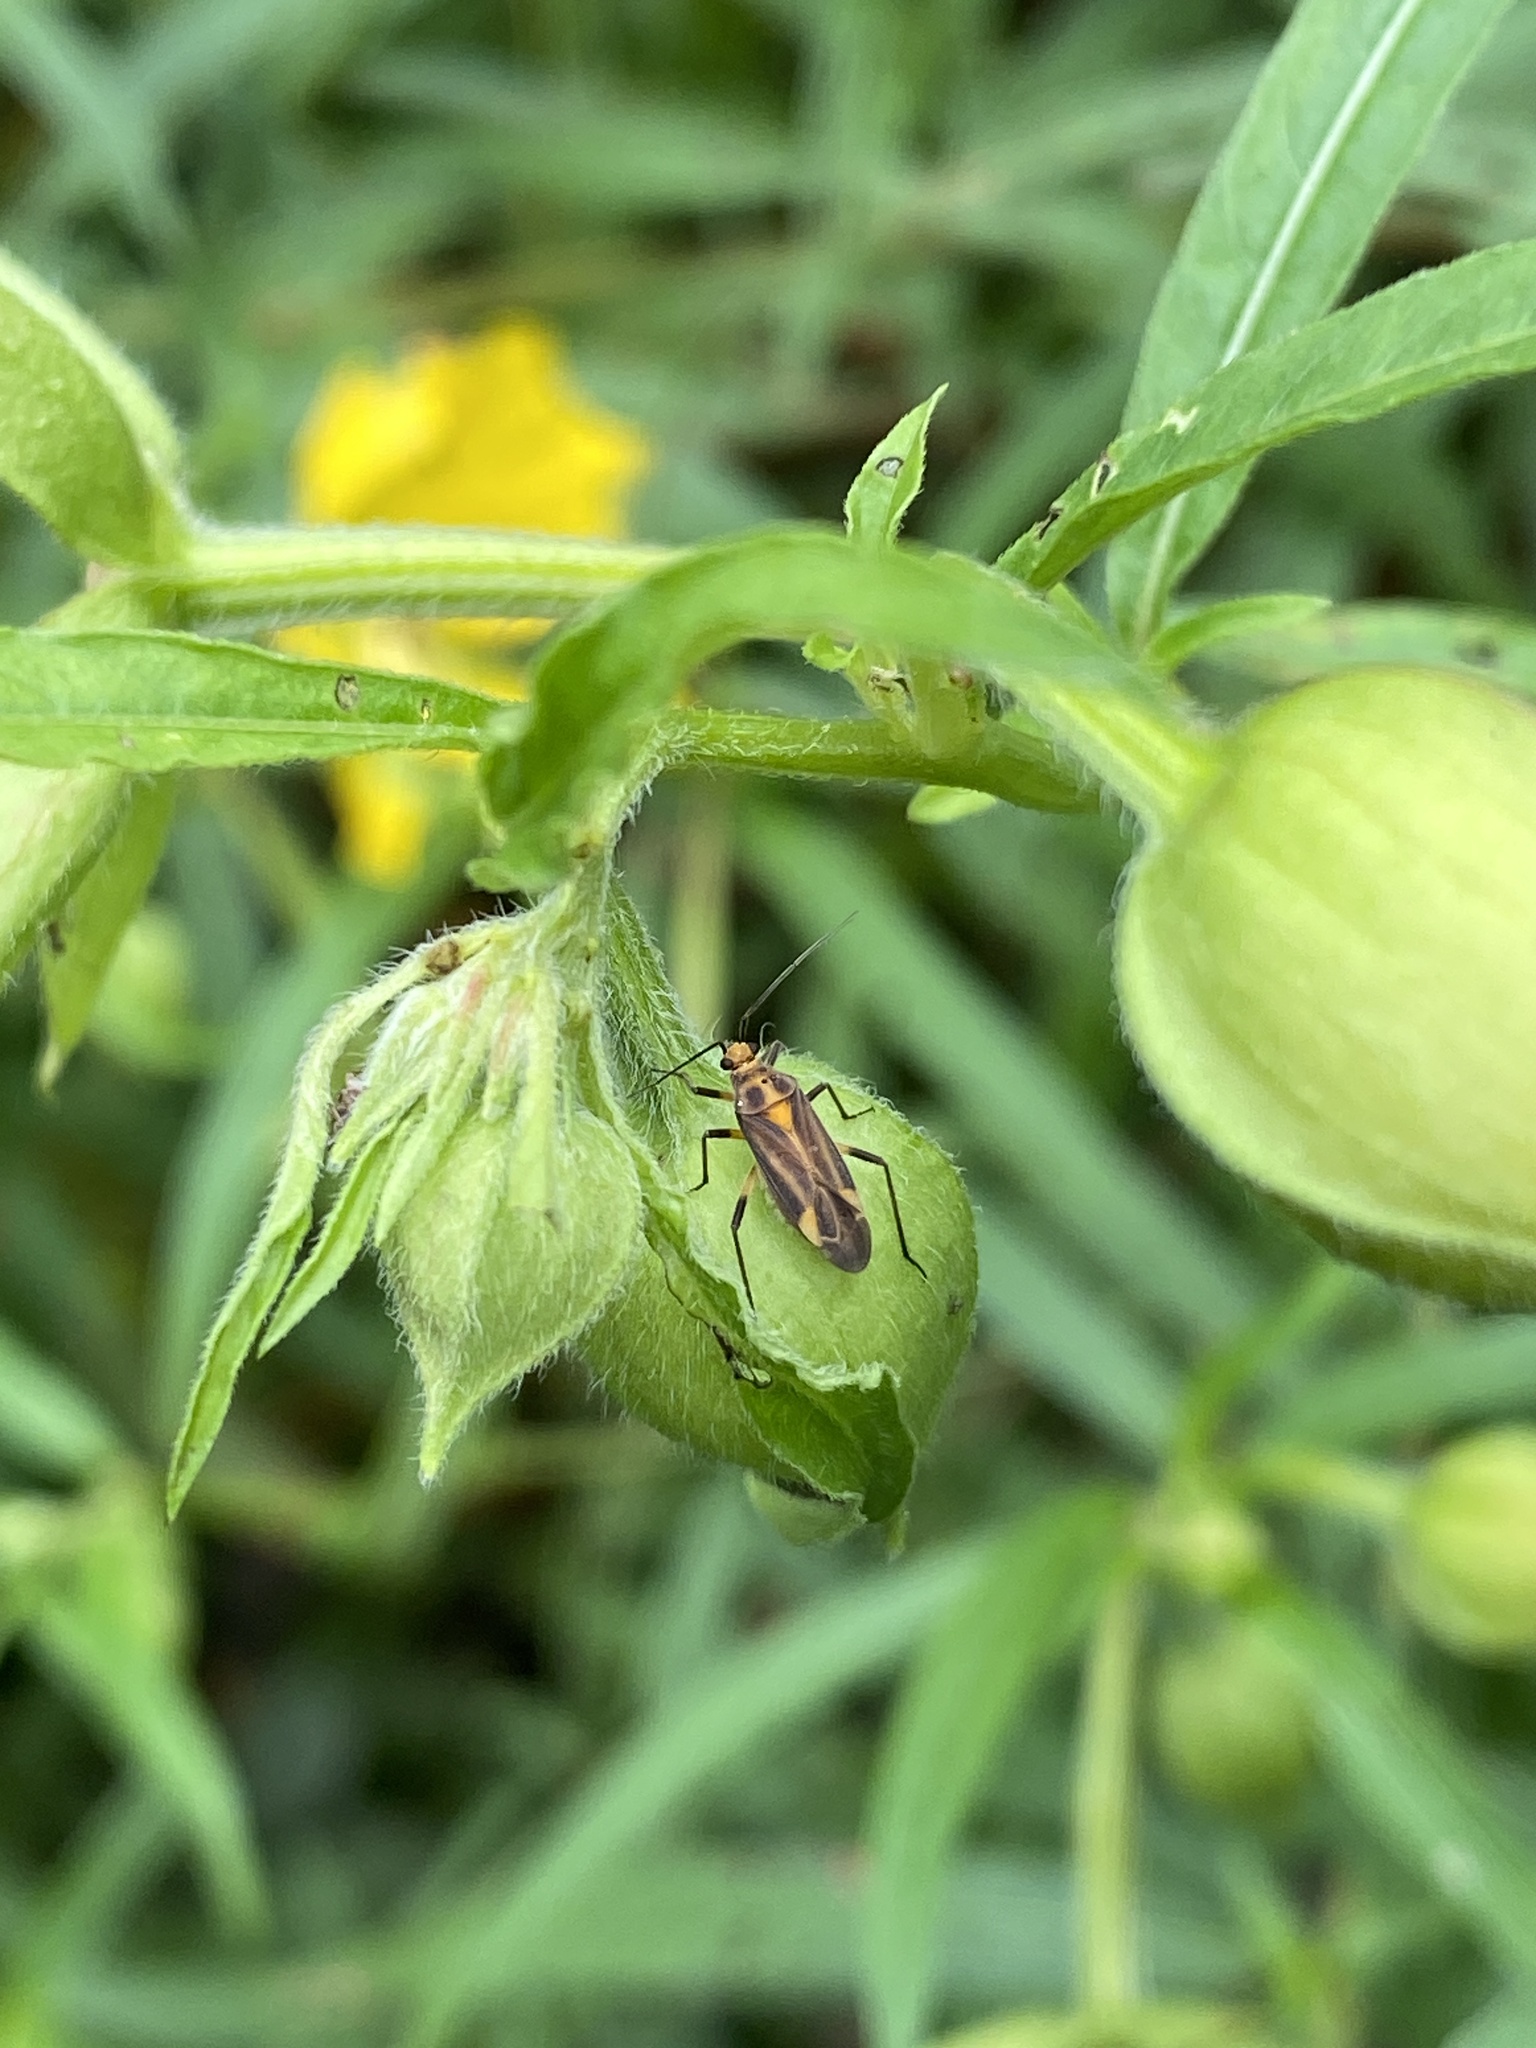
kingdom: Animalia
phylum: Arthropoda
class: Insecta
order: Hemiptera
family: Miridae
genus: Prepops
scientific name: Prepops cruciferus
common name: Plant bug
